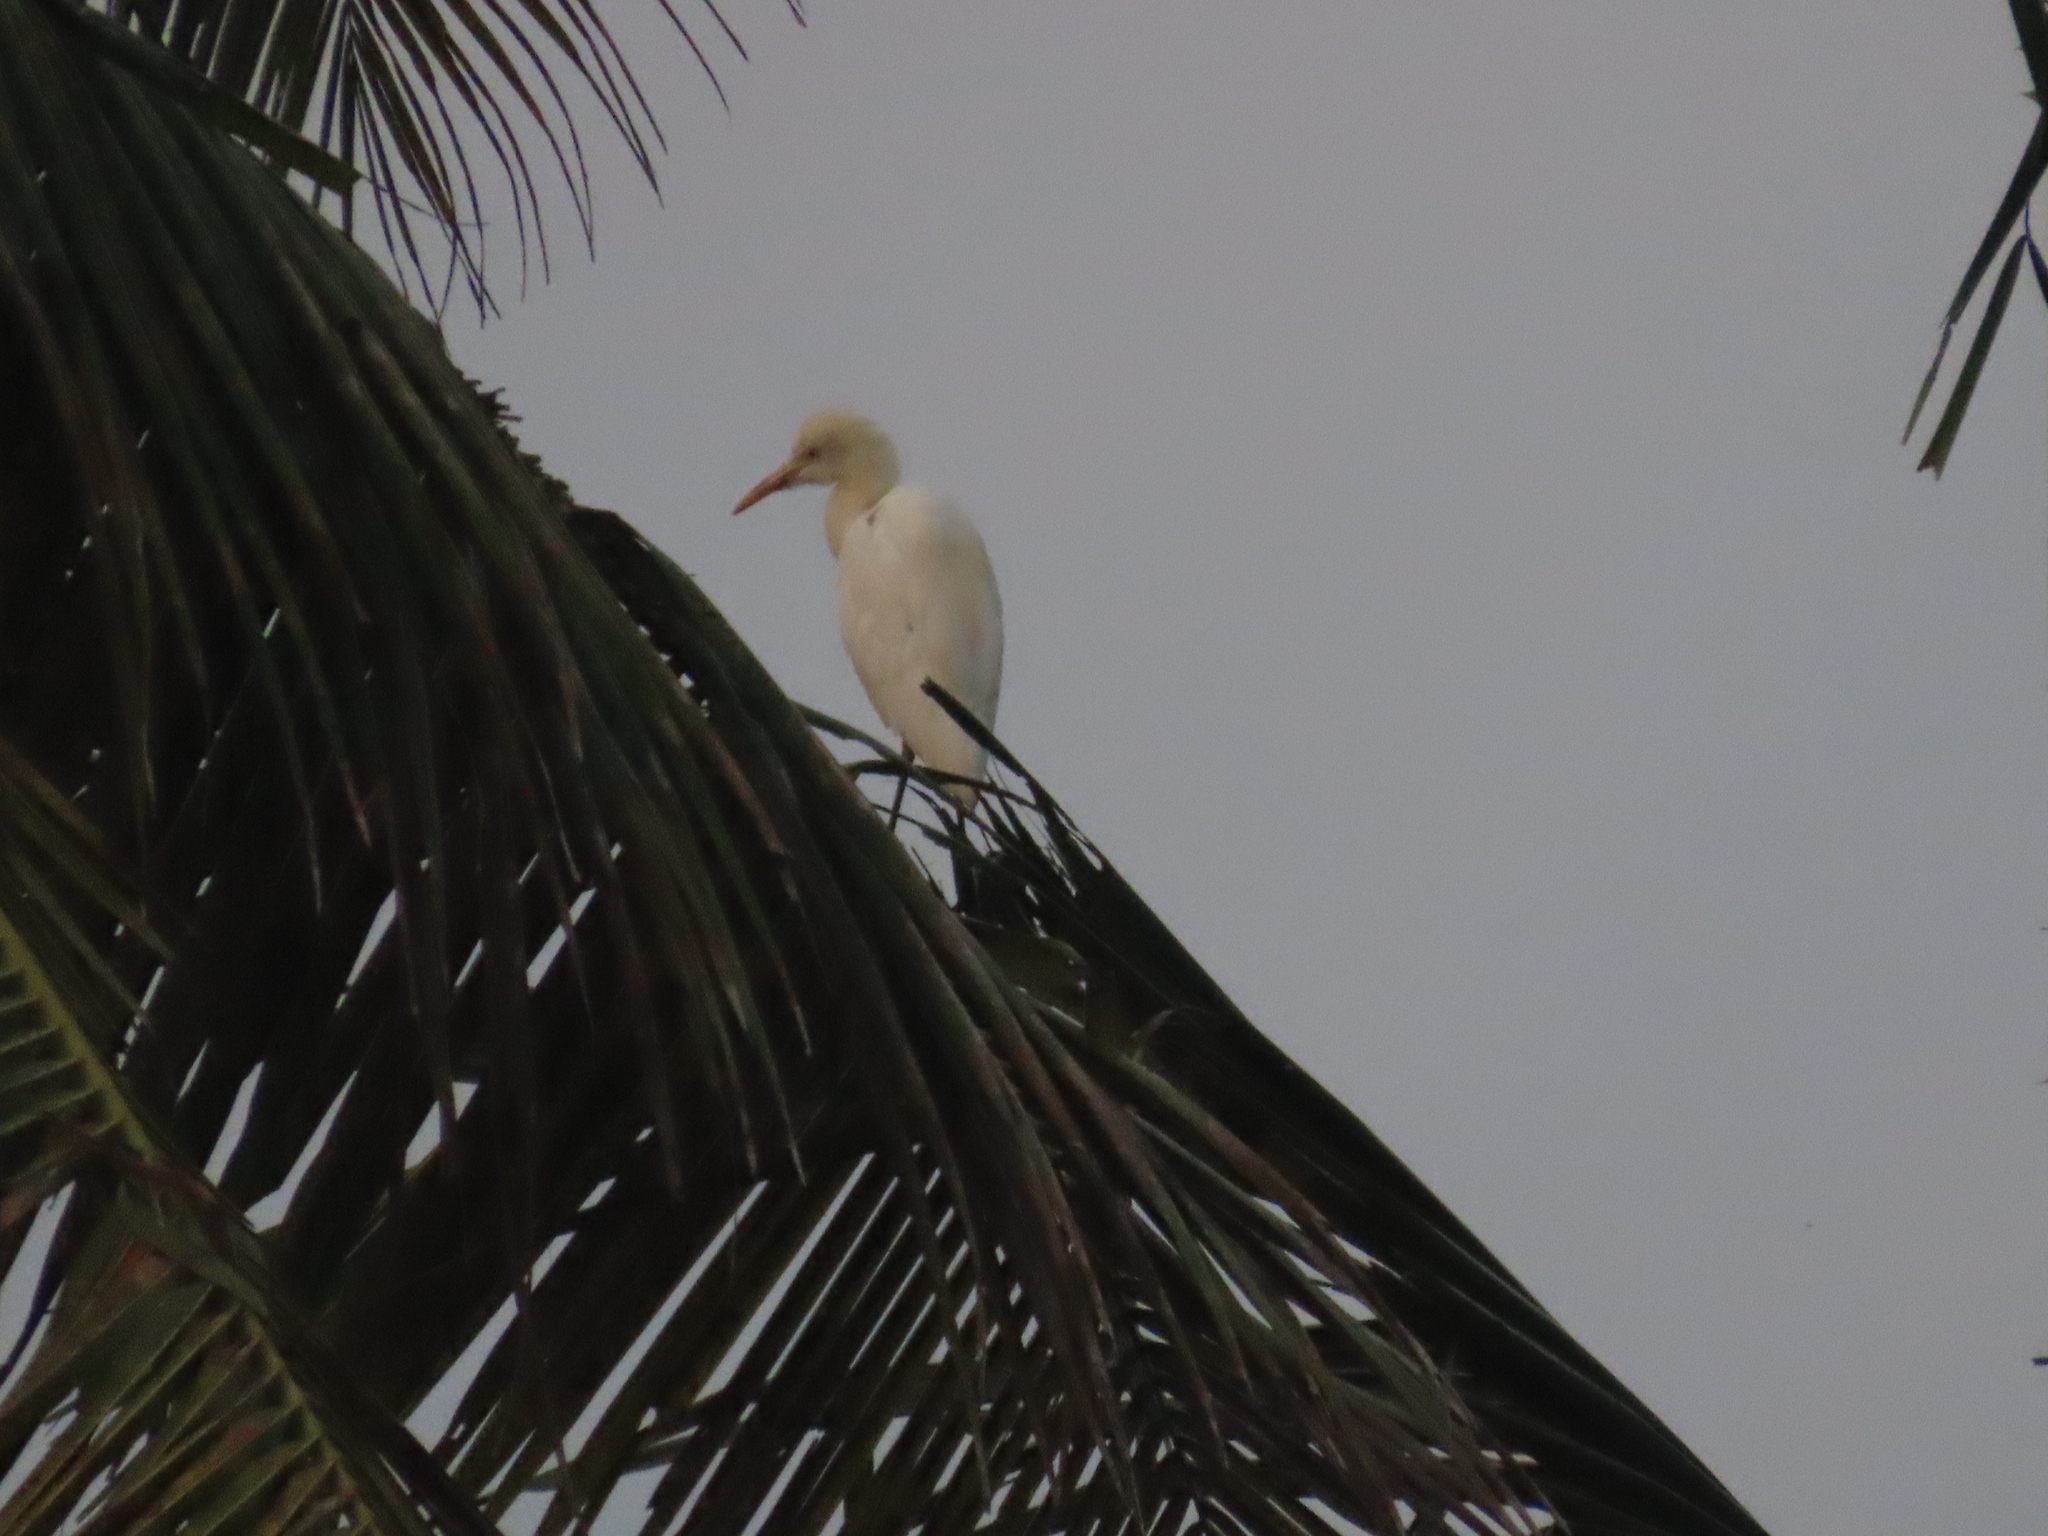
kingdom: Animalia
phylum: Chordata
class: Aves
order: Pelecaniformes
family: Ardeidae
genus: Bubulcus
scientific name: Bubulcus coromandus
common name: Eastern cattle egret
